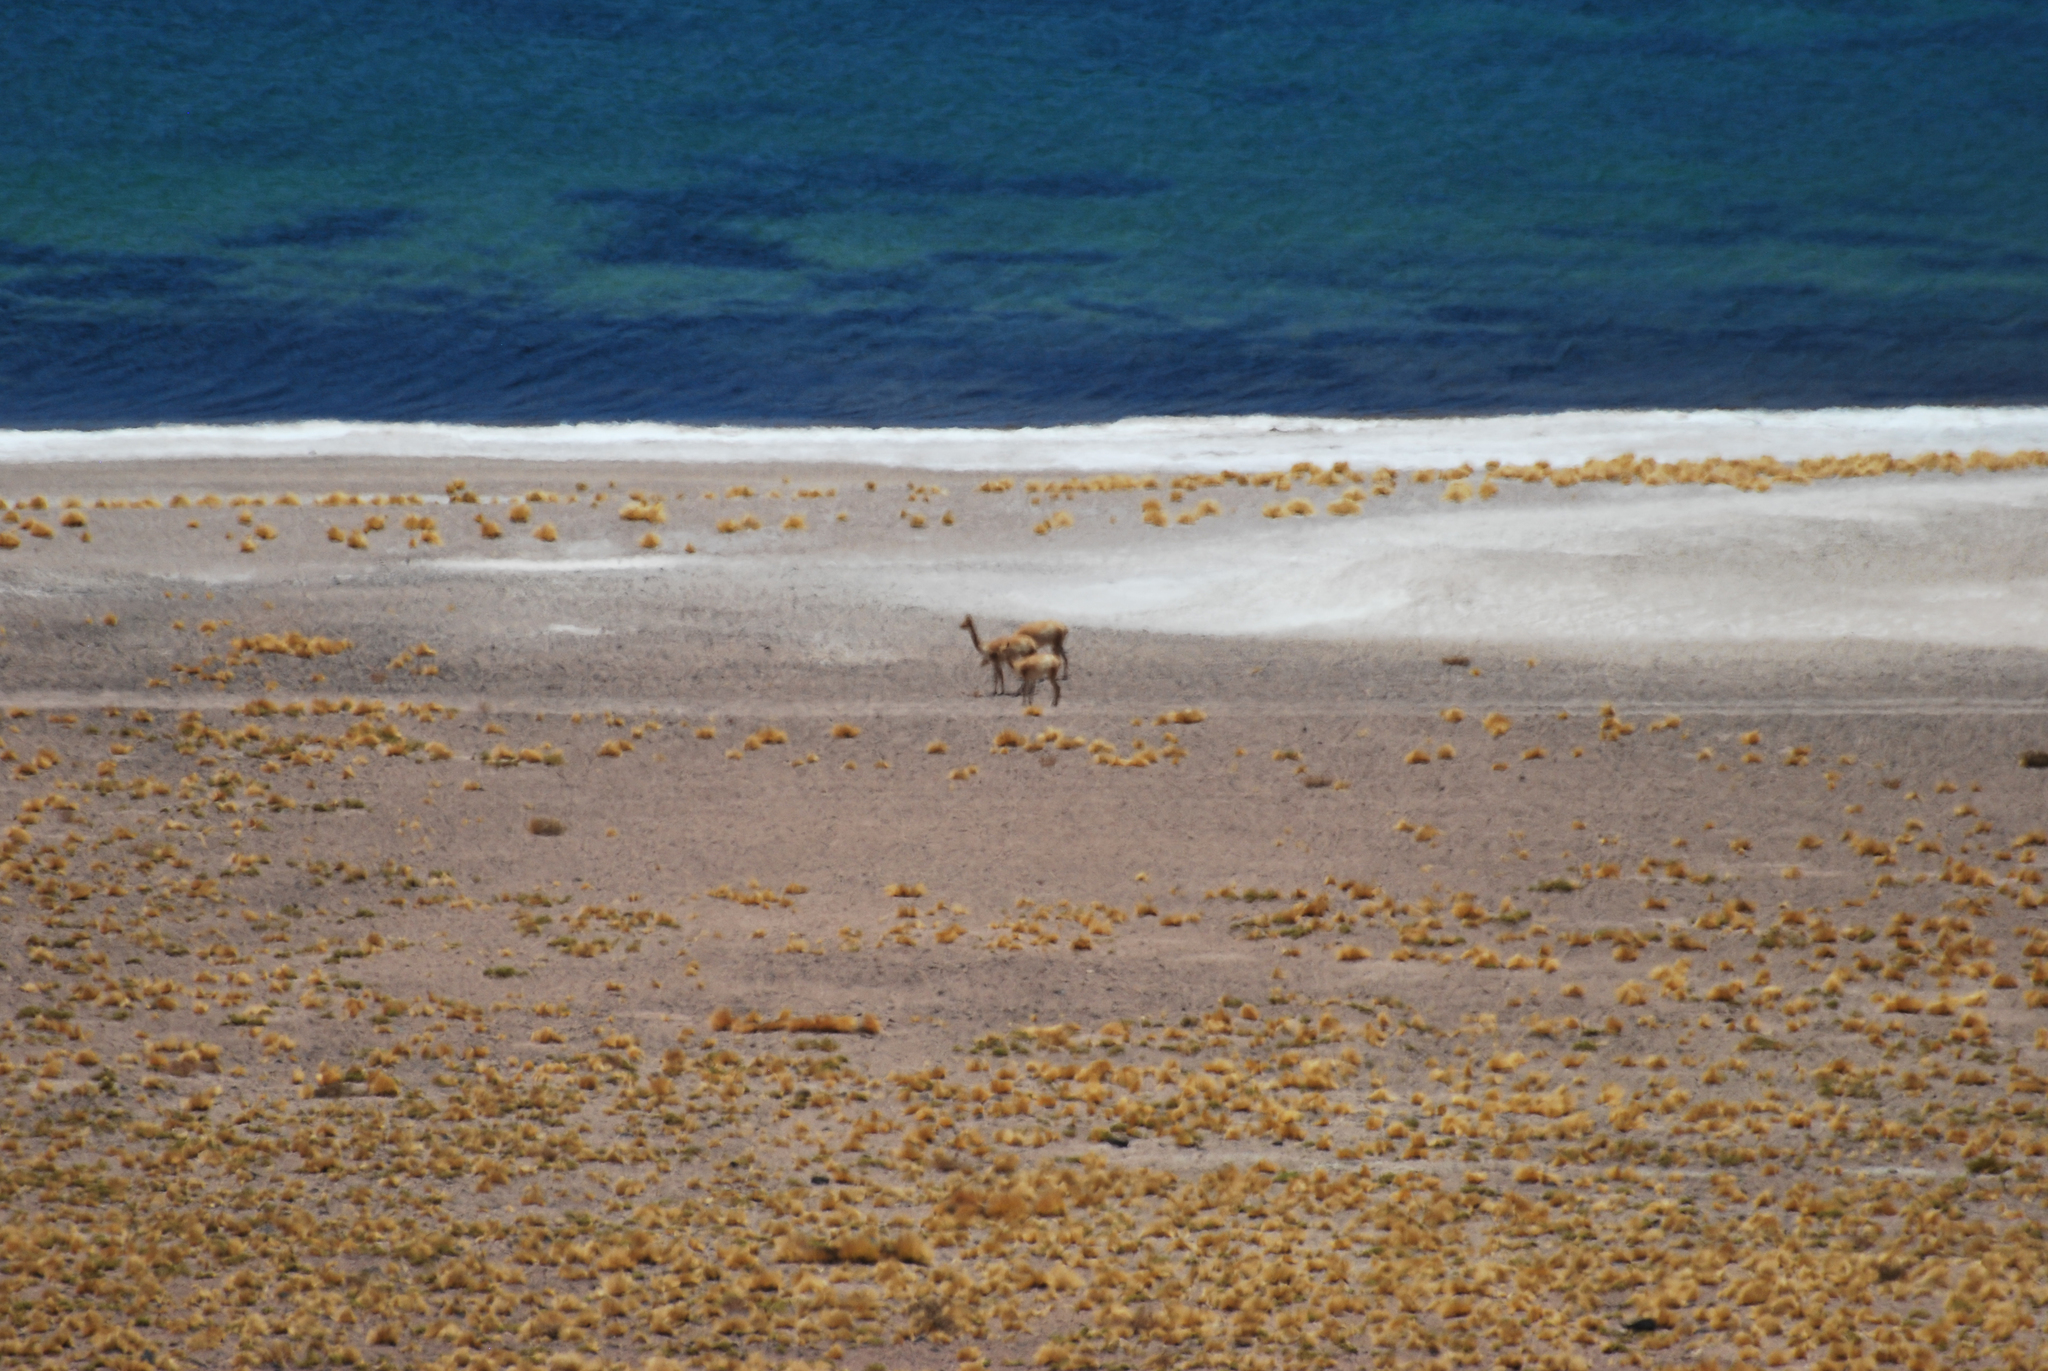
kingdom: Animalia
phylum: Chordata
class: Mammalia
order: Artiodactyla
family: Camelidae
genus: Vicugna
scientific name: Vicugna vicugna
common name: Vicugna
